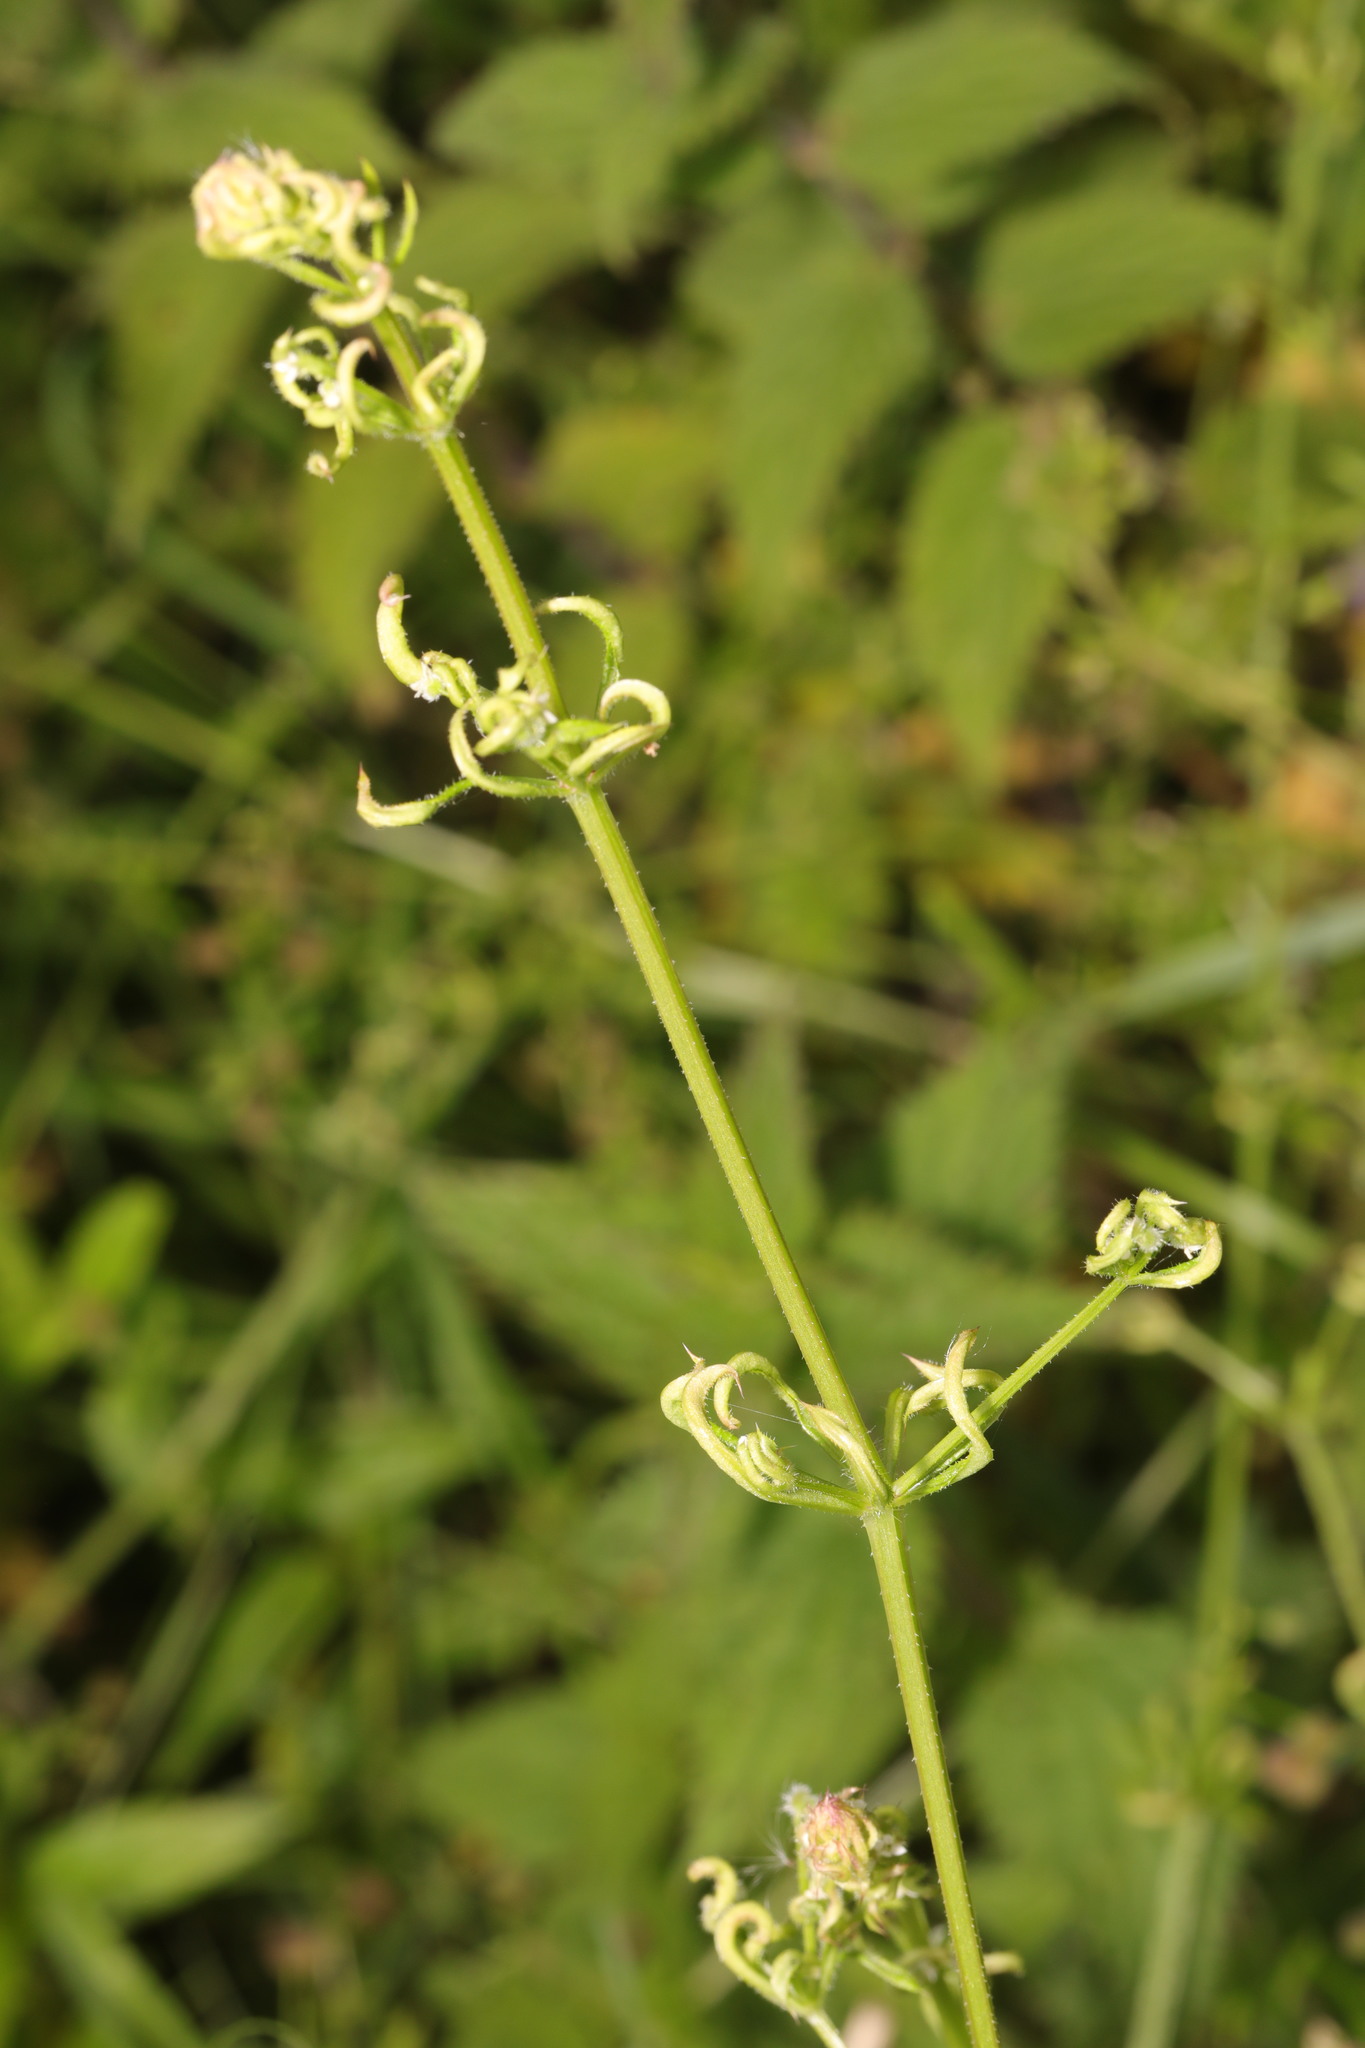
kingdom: Animalia
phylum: Arthropoda
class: Arachnida
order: Trombidiformes
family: Eriophyidae
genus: Cecidophyes
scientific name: Cecidophyes rouhollahi
